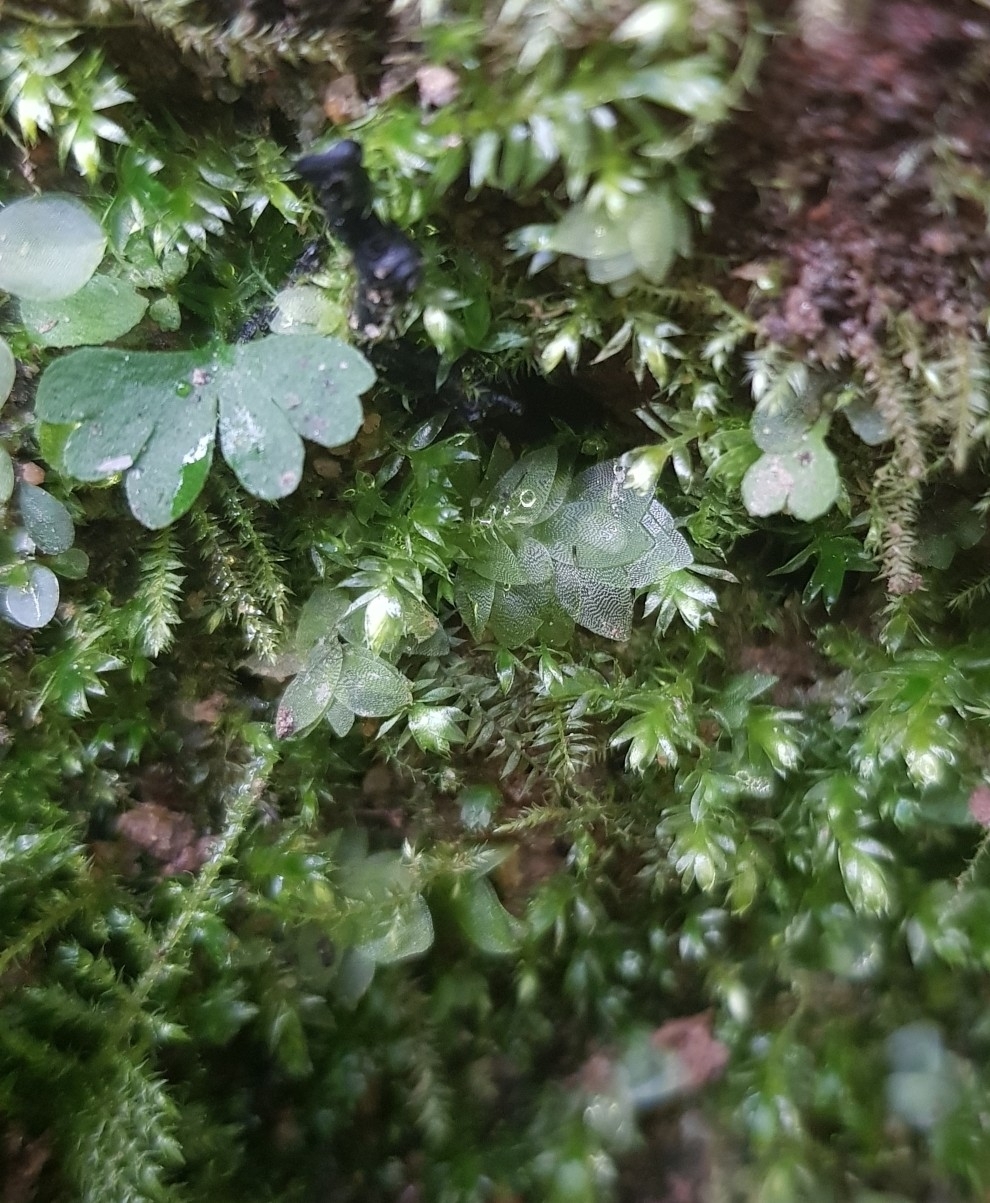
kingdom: Plantae
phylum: Bryophyta
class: Bryopsida
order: Hookeriales
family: Hookeriaceae
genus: Hookeria
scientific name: Hookeria lucens
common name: Shining hookeria
